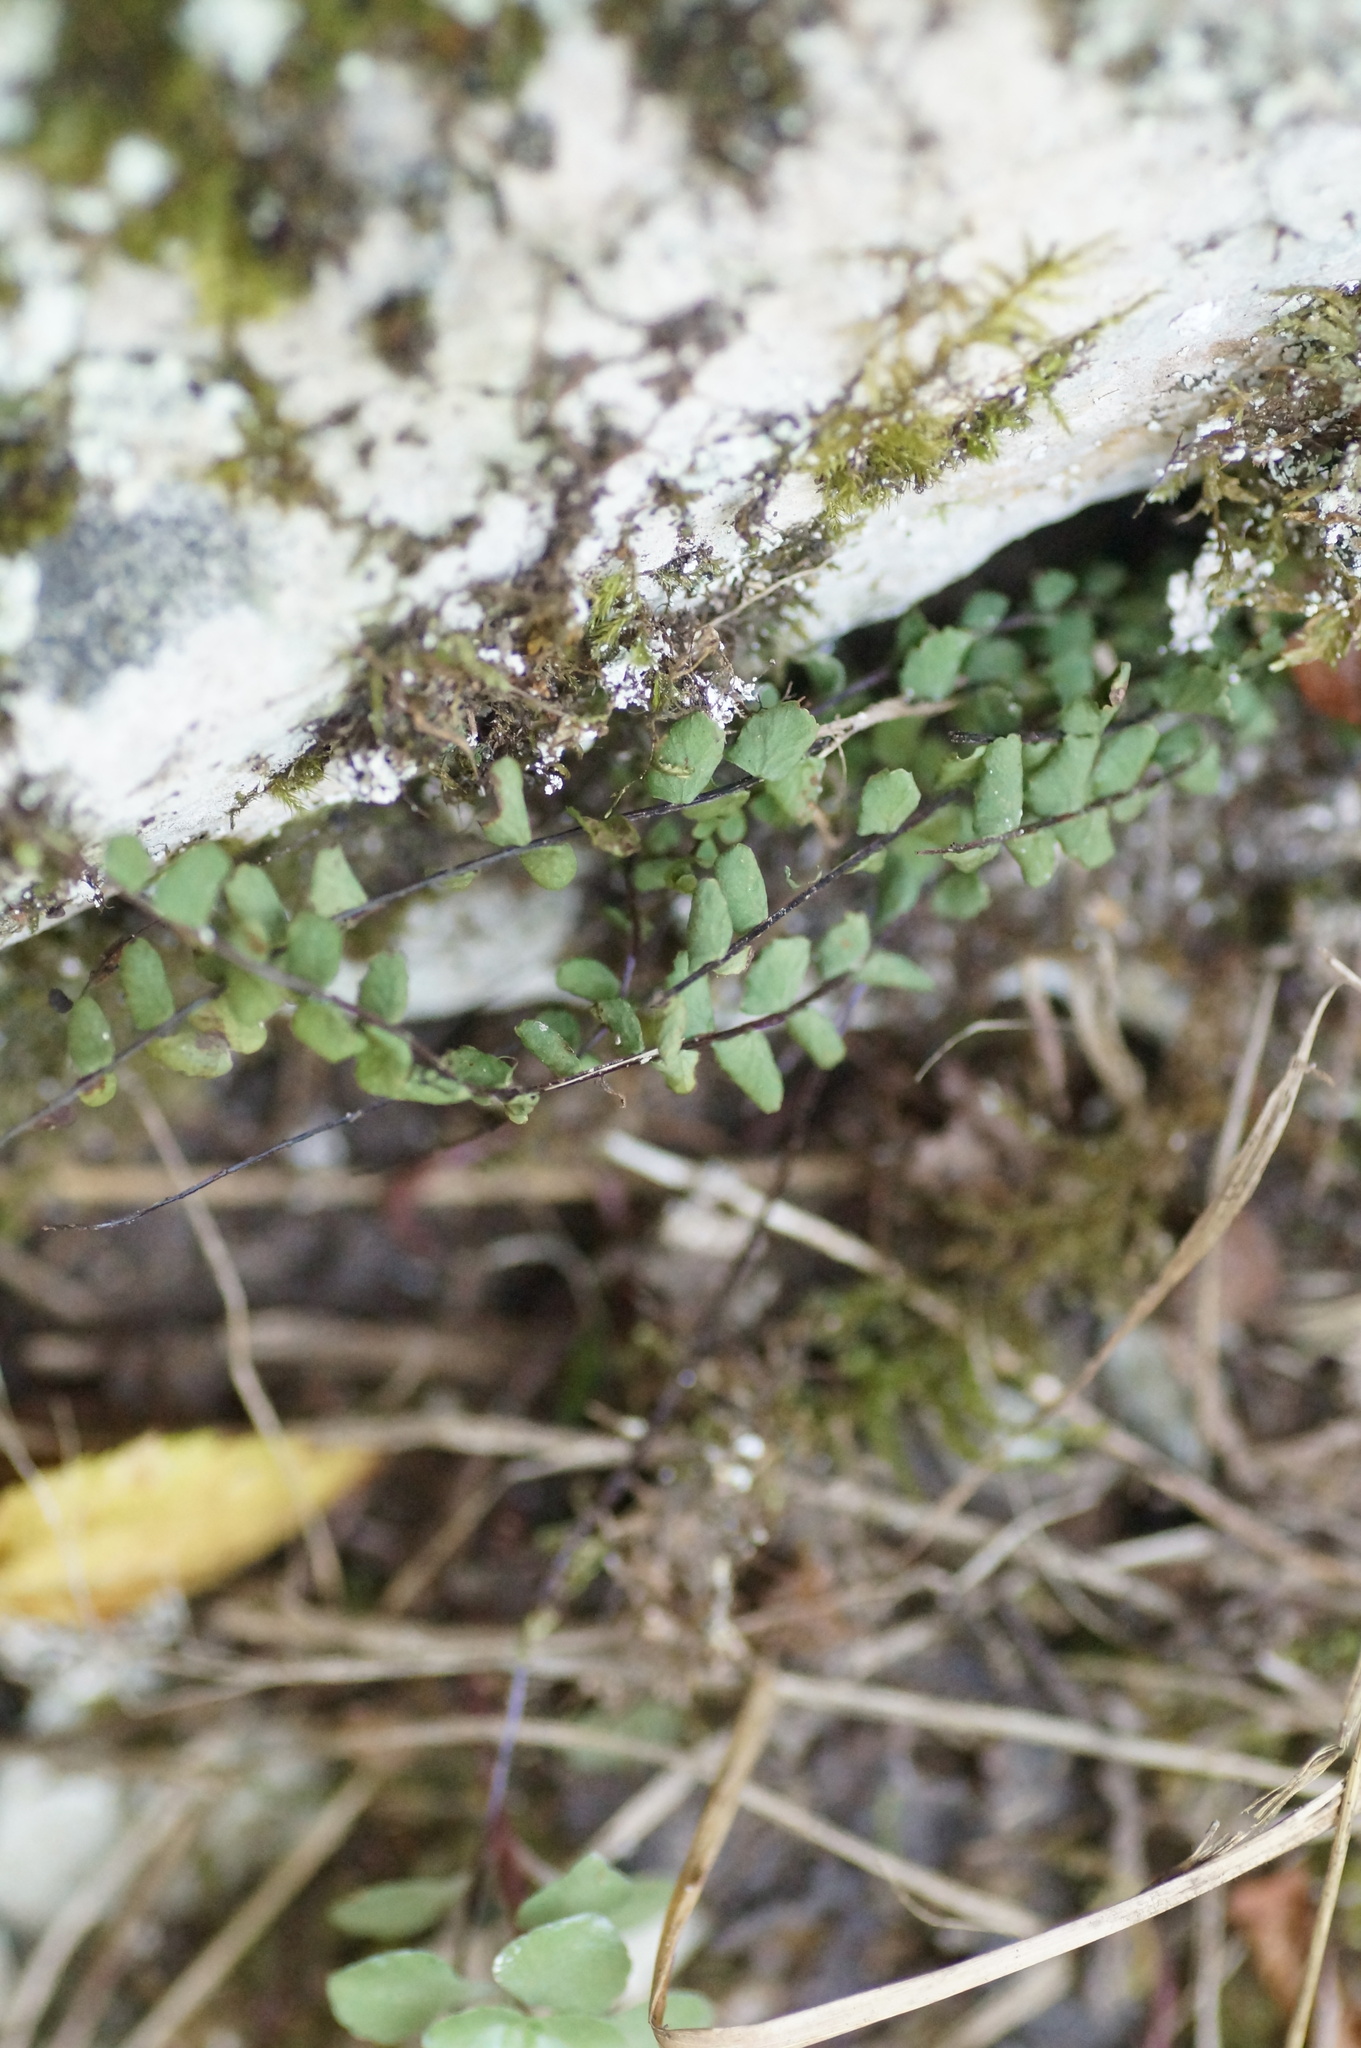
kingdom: Plantae
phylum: Tracheophyta
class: Polypodiopsida
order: Polypodiales
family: Aspleniaceae
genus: Asplenium
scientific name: Asplenium trichomanes
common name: Maidenhair spleenwort
